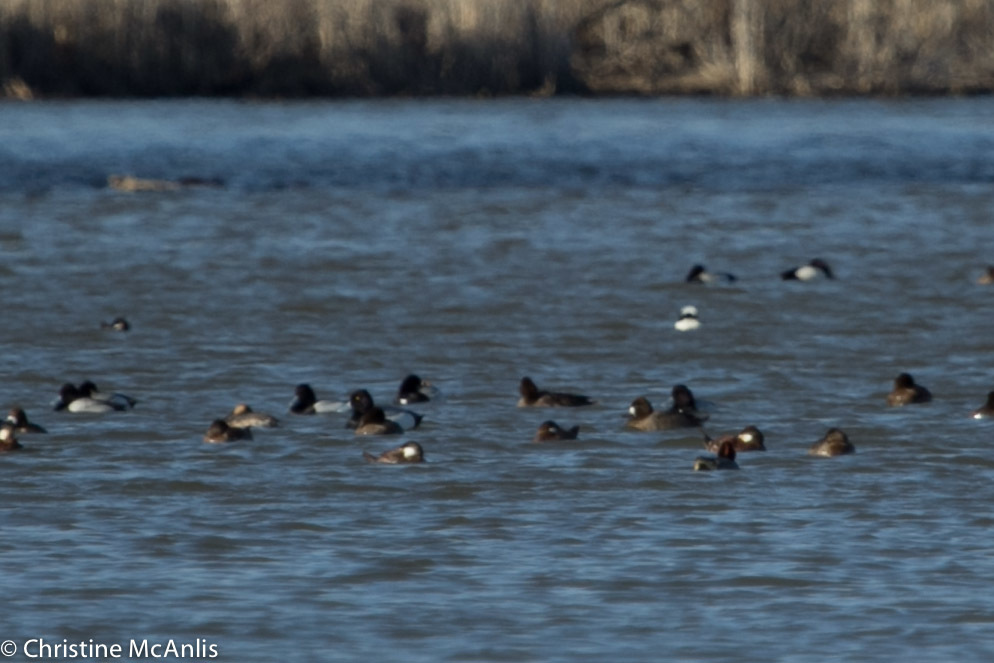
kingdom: Animalia
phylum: Chordata
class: Aves
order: Anseriformes
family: Anatidae
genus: Aythya
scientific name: Aythya affinis
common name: Lesser scaup
